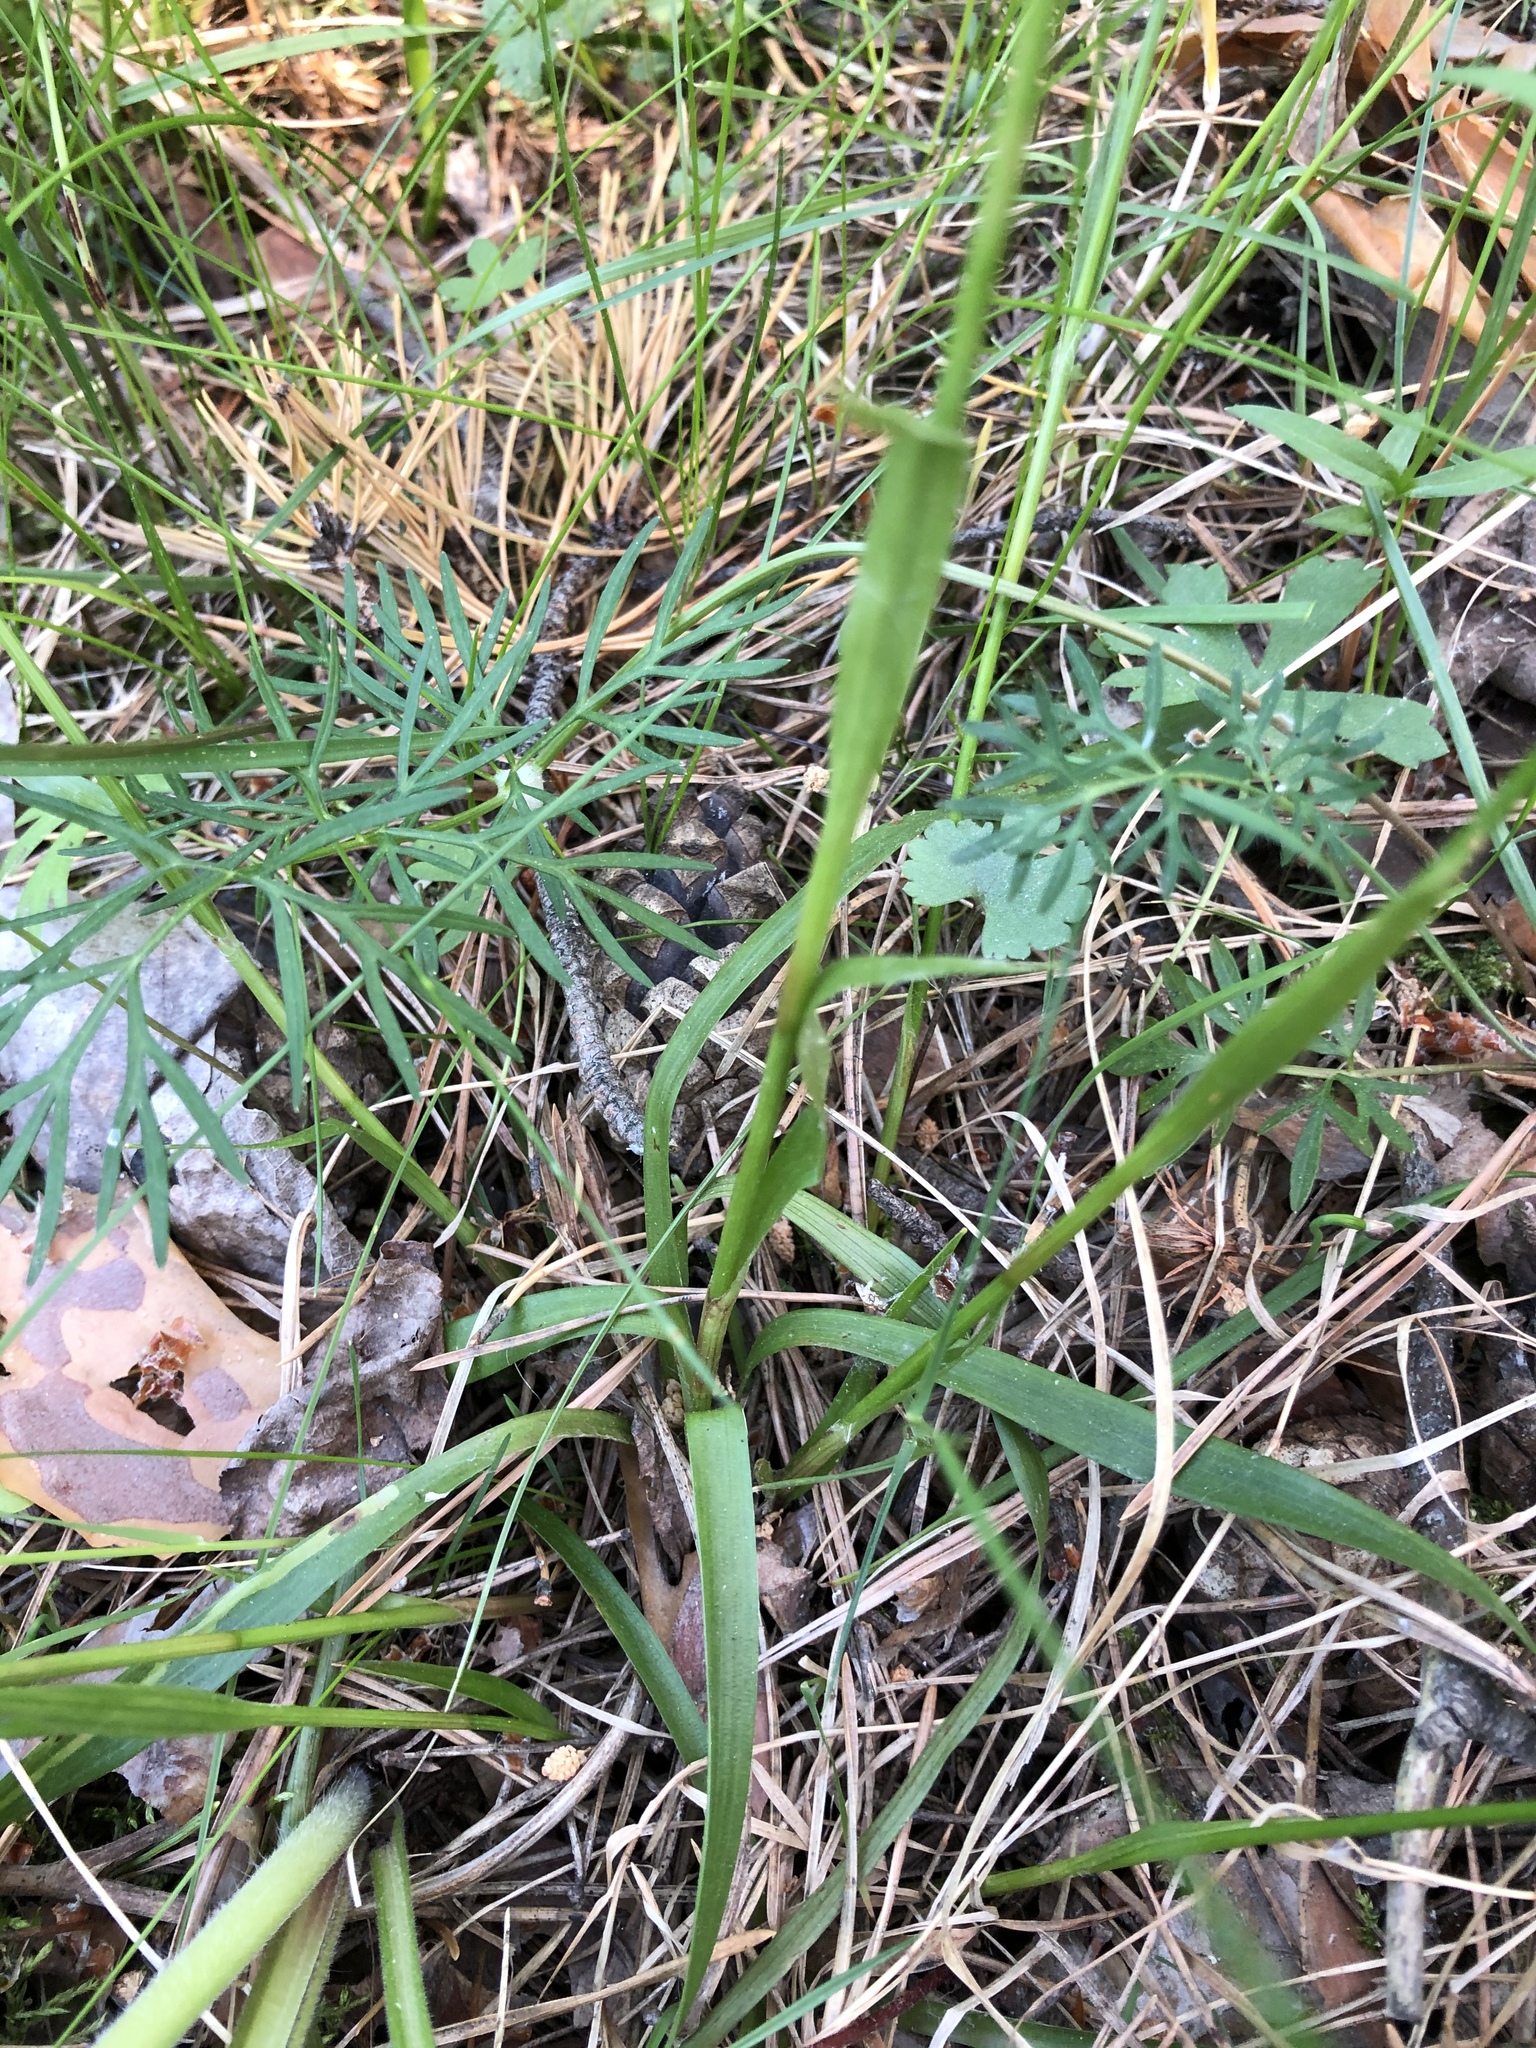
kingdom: Plantae
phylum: Tracheophyta
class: Liliopsida
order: Poales
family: Juncaceae
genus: Luzula
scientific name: Luzula pilosa
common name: Hairy wood-rush
